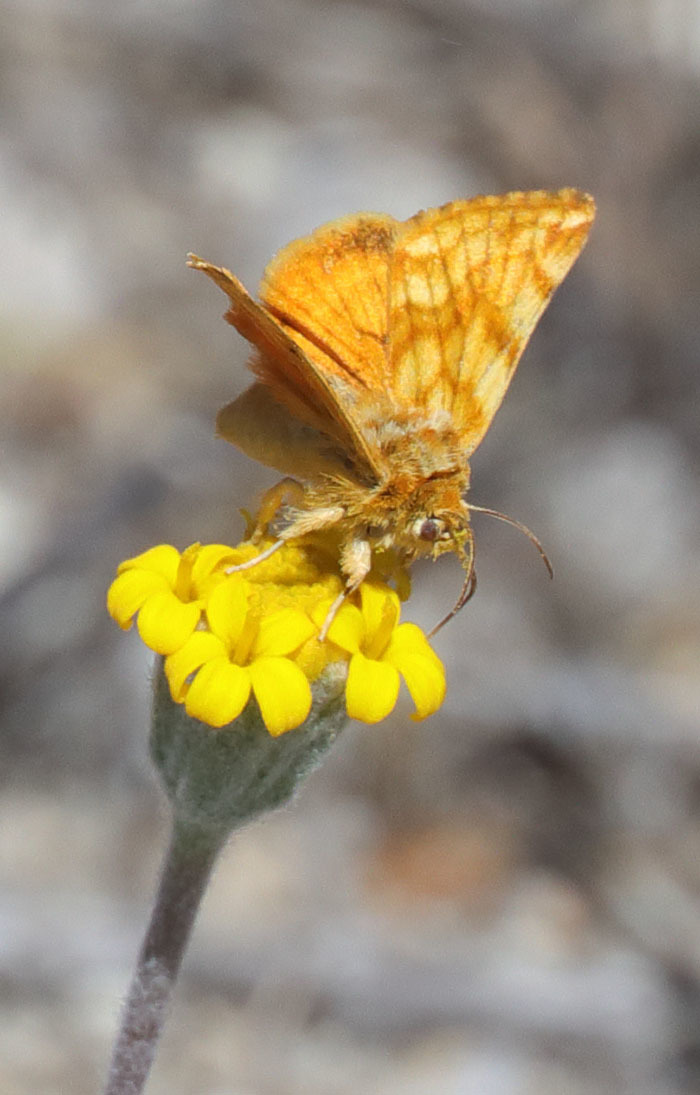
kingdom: Animalia
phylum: Arthropoda
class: Insecta
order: Lepidoptera
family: Noctuidae
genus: Xanthothrix
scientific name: Xanthothrix neumoegeni
